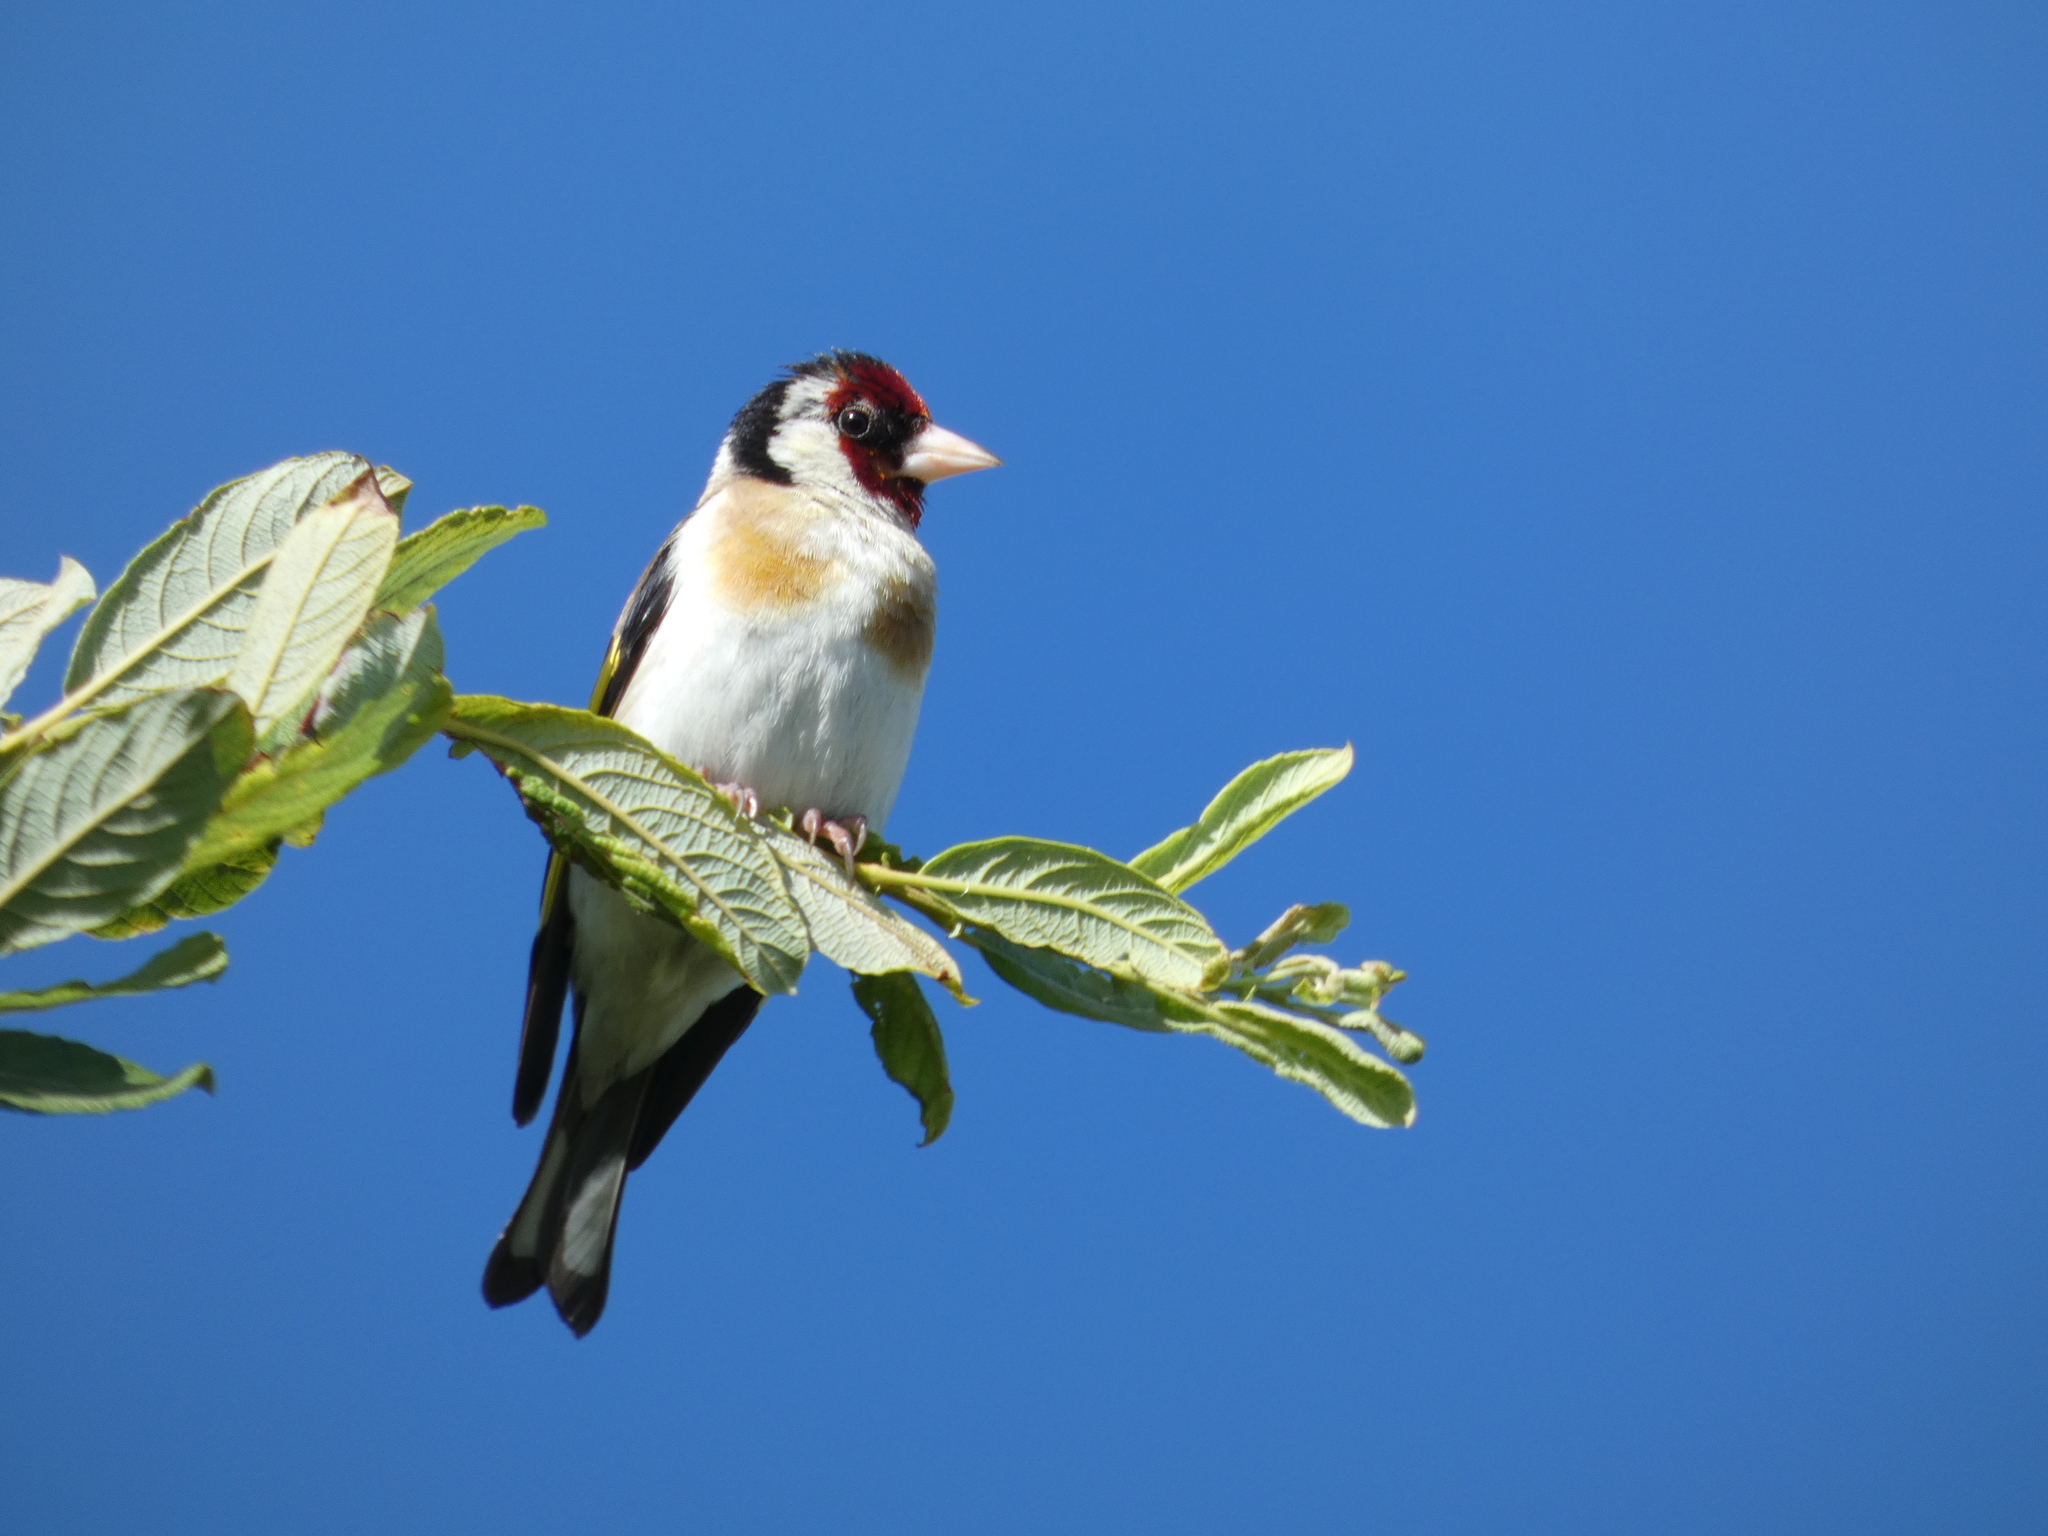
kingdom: Animalia
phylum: Chordata
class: Aves
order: Passeriformes
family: Fringillidae
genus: Carduelis
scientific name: Carduelis carduelis
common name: European goldfinch
